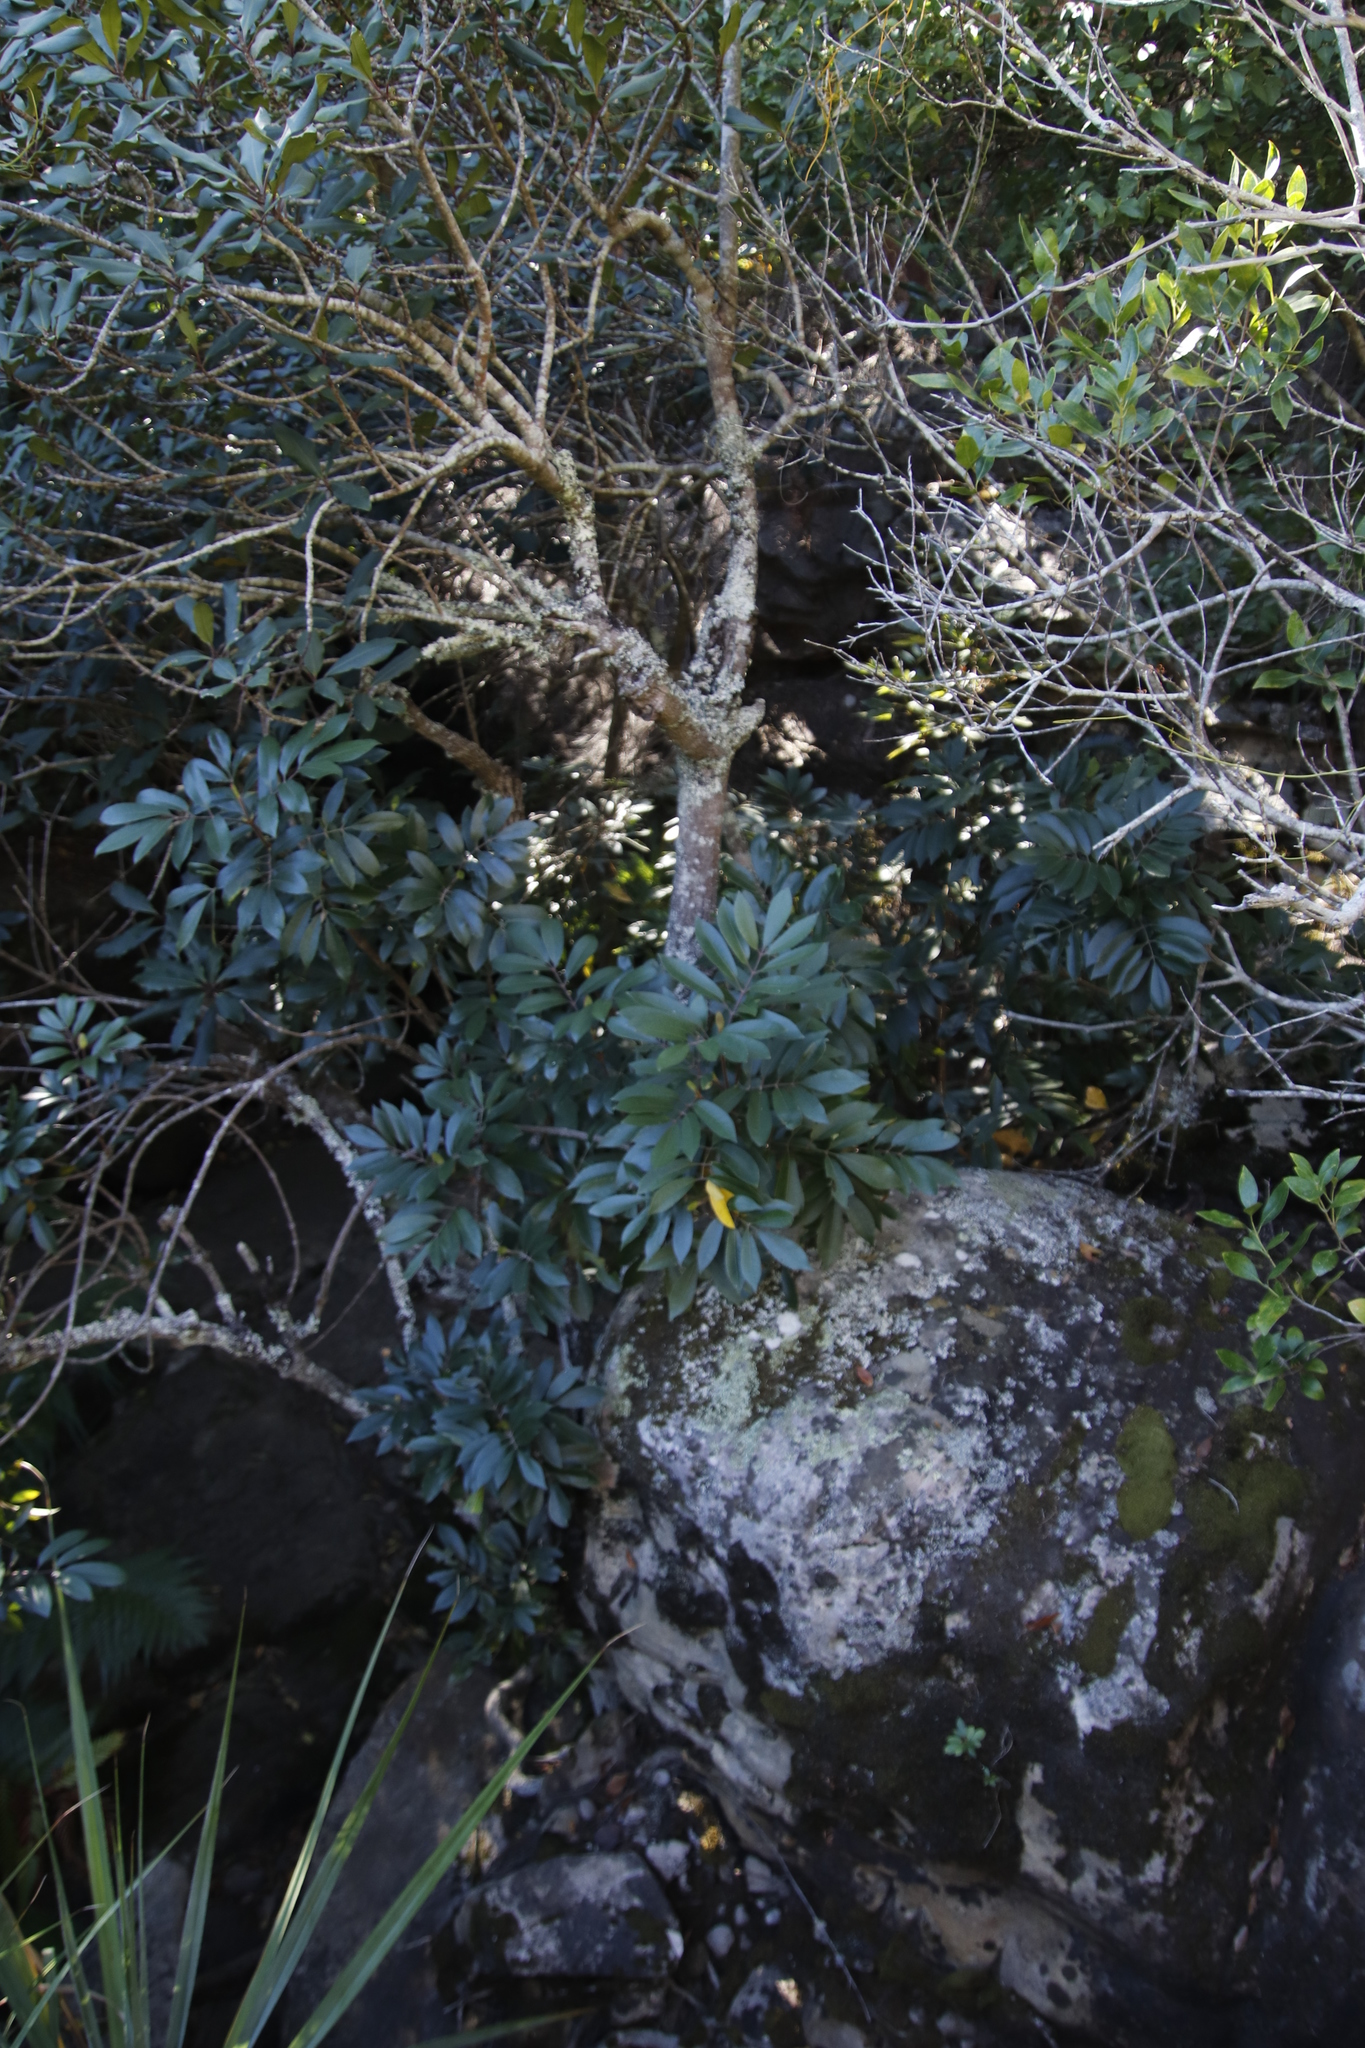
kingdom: Plantae
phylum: Tracheophyta
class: Magnoliopsida
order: Oxalidales
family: Cunoniaceae
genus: Cunonia
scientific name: Cunonia capensis
